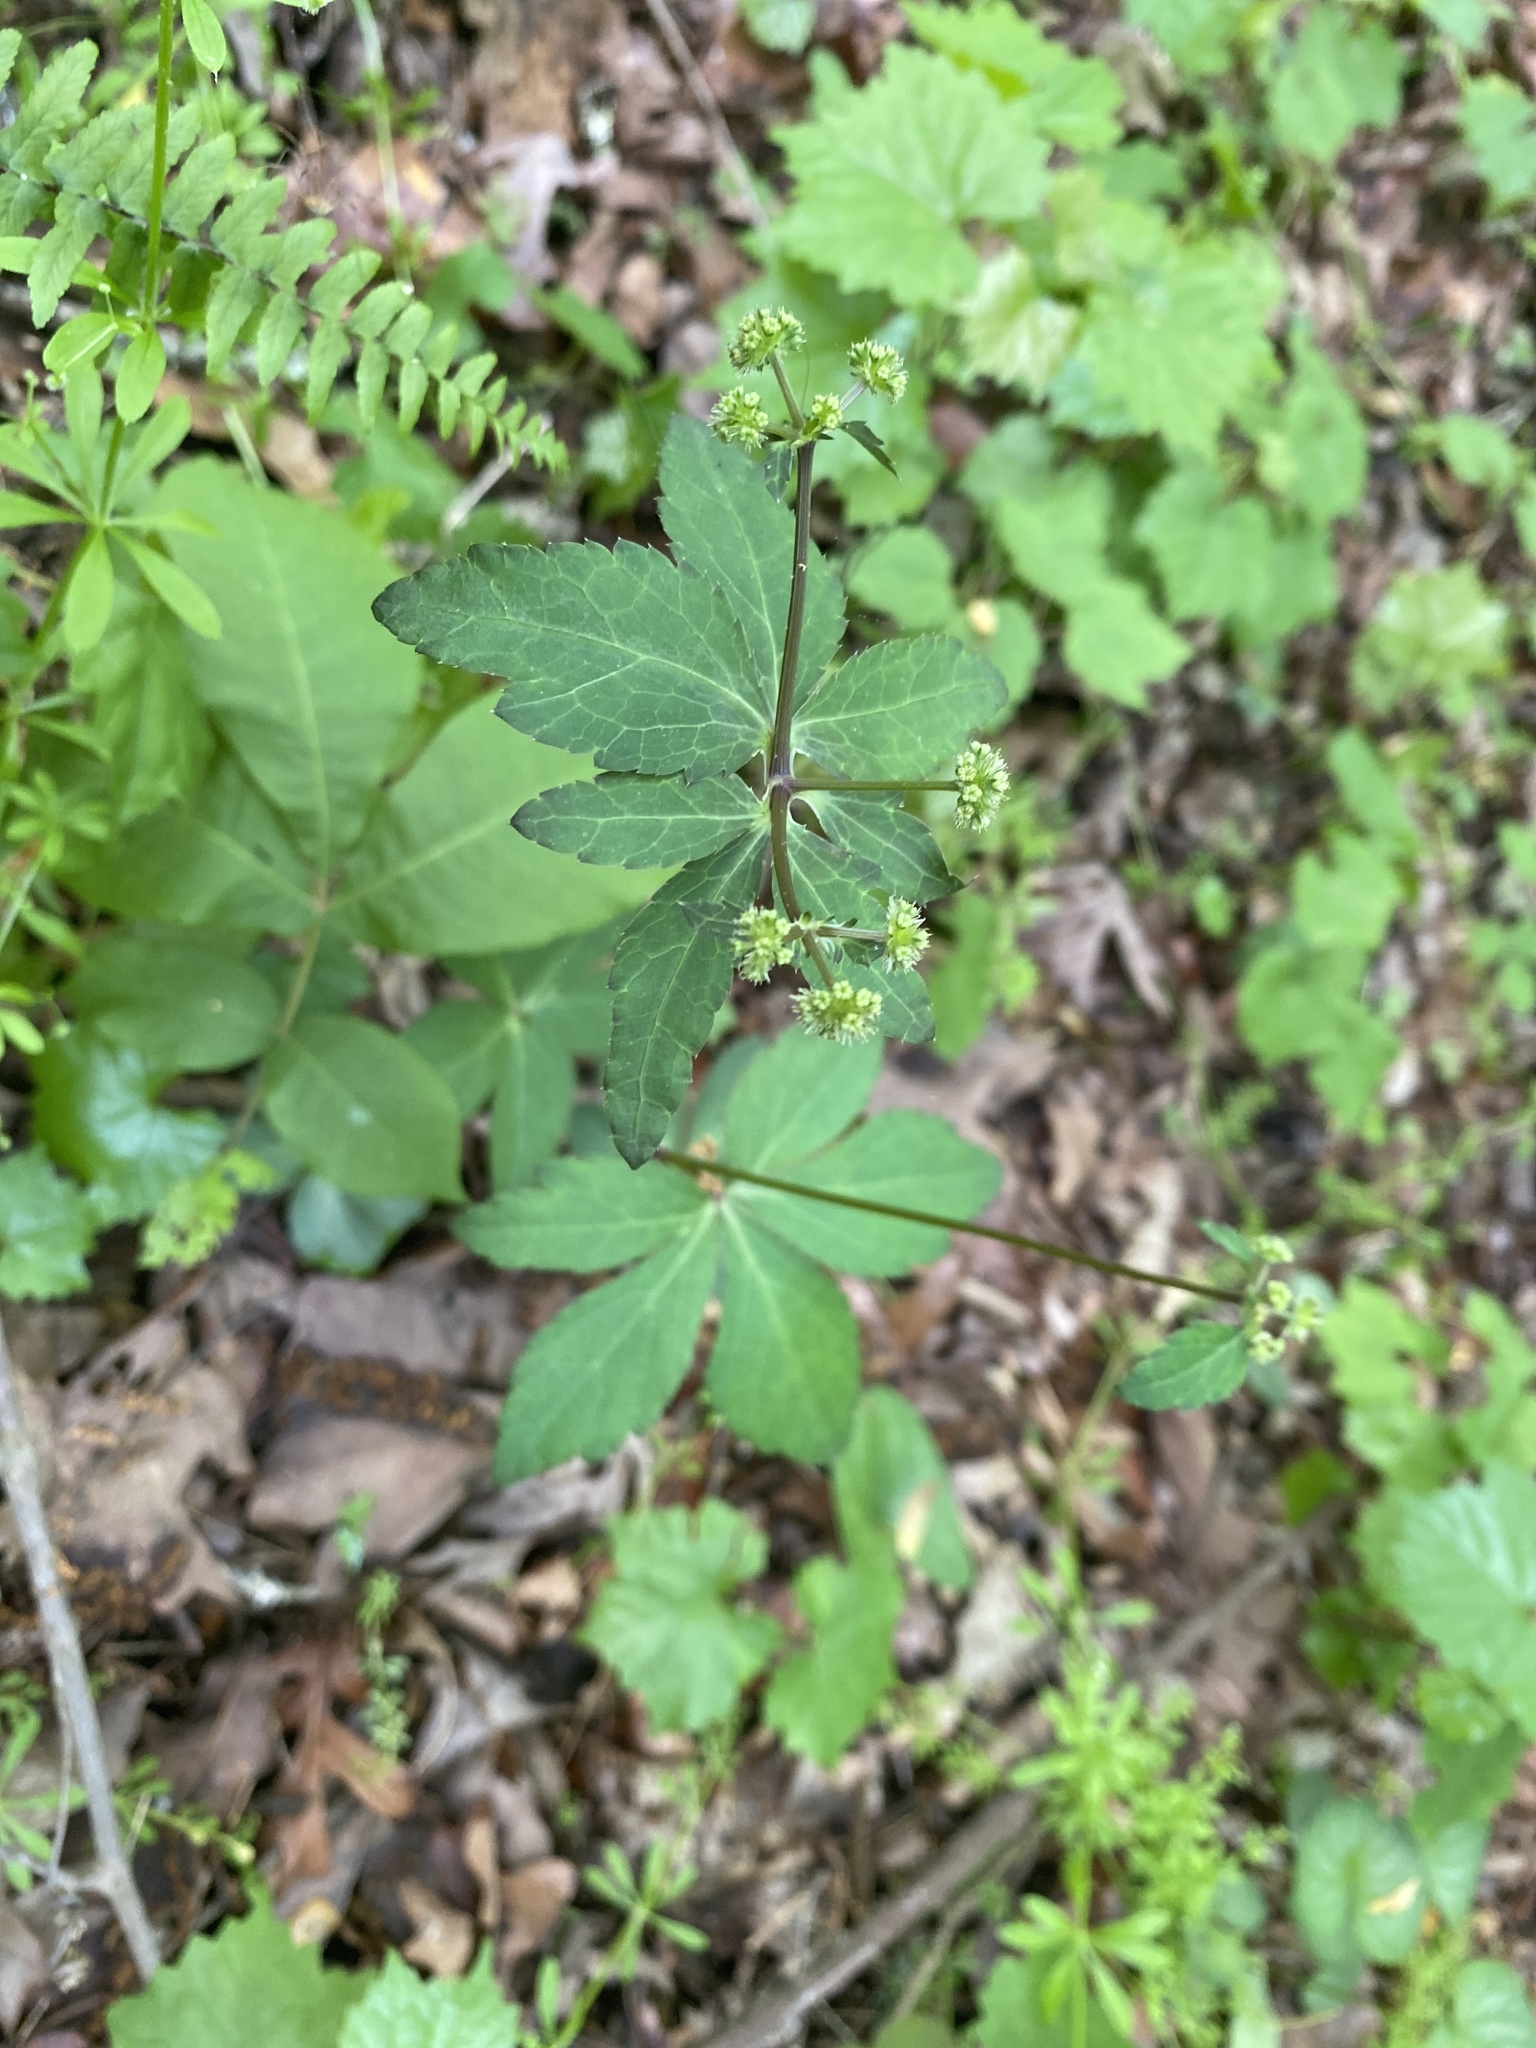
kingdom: Plantae
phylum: Tracheophyta
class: Magnoliopsida
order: Apiales
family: Apiaceae
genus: Sanicula
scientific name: Sanicula canadensis
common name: Canada sanicle
